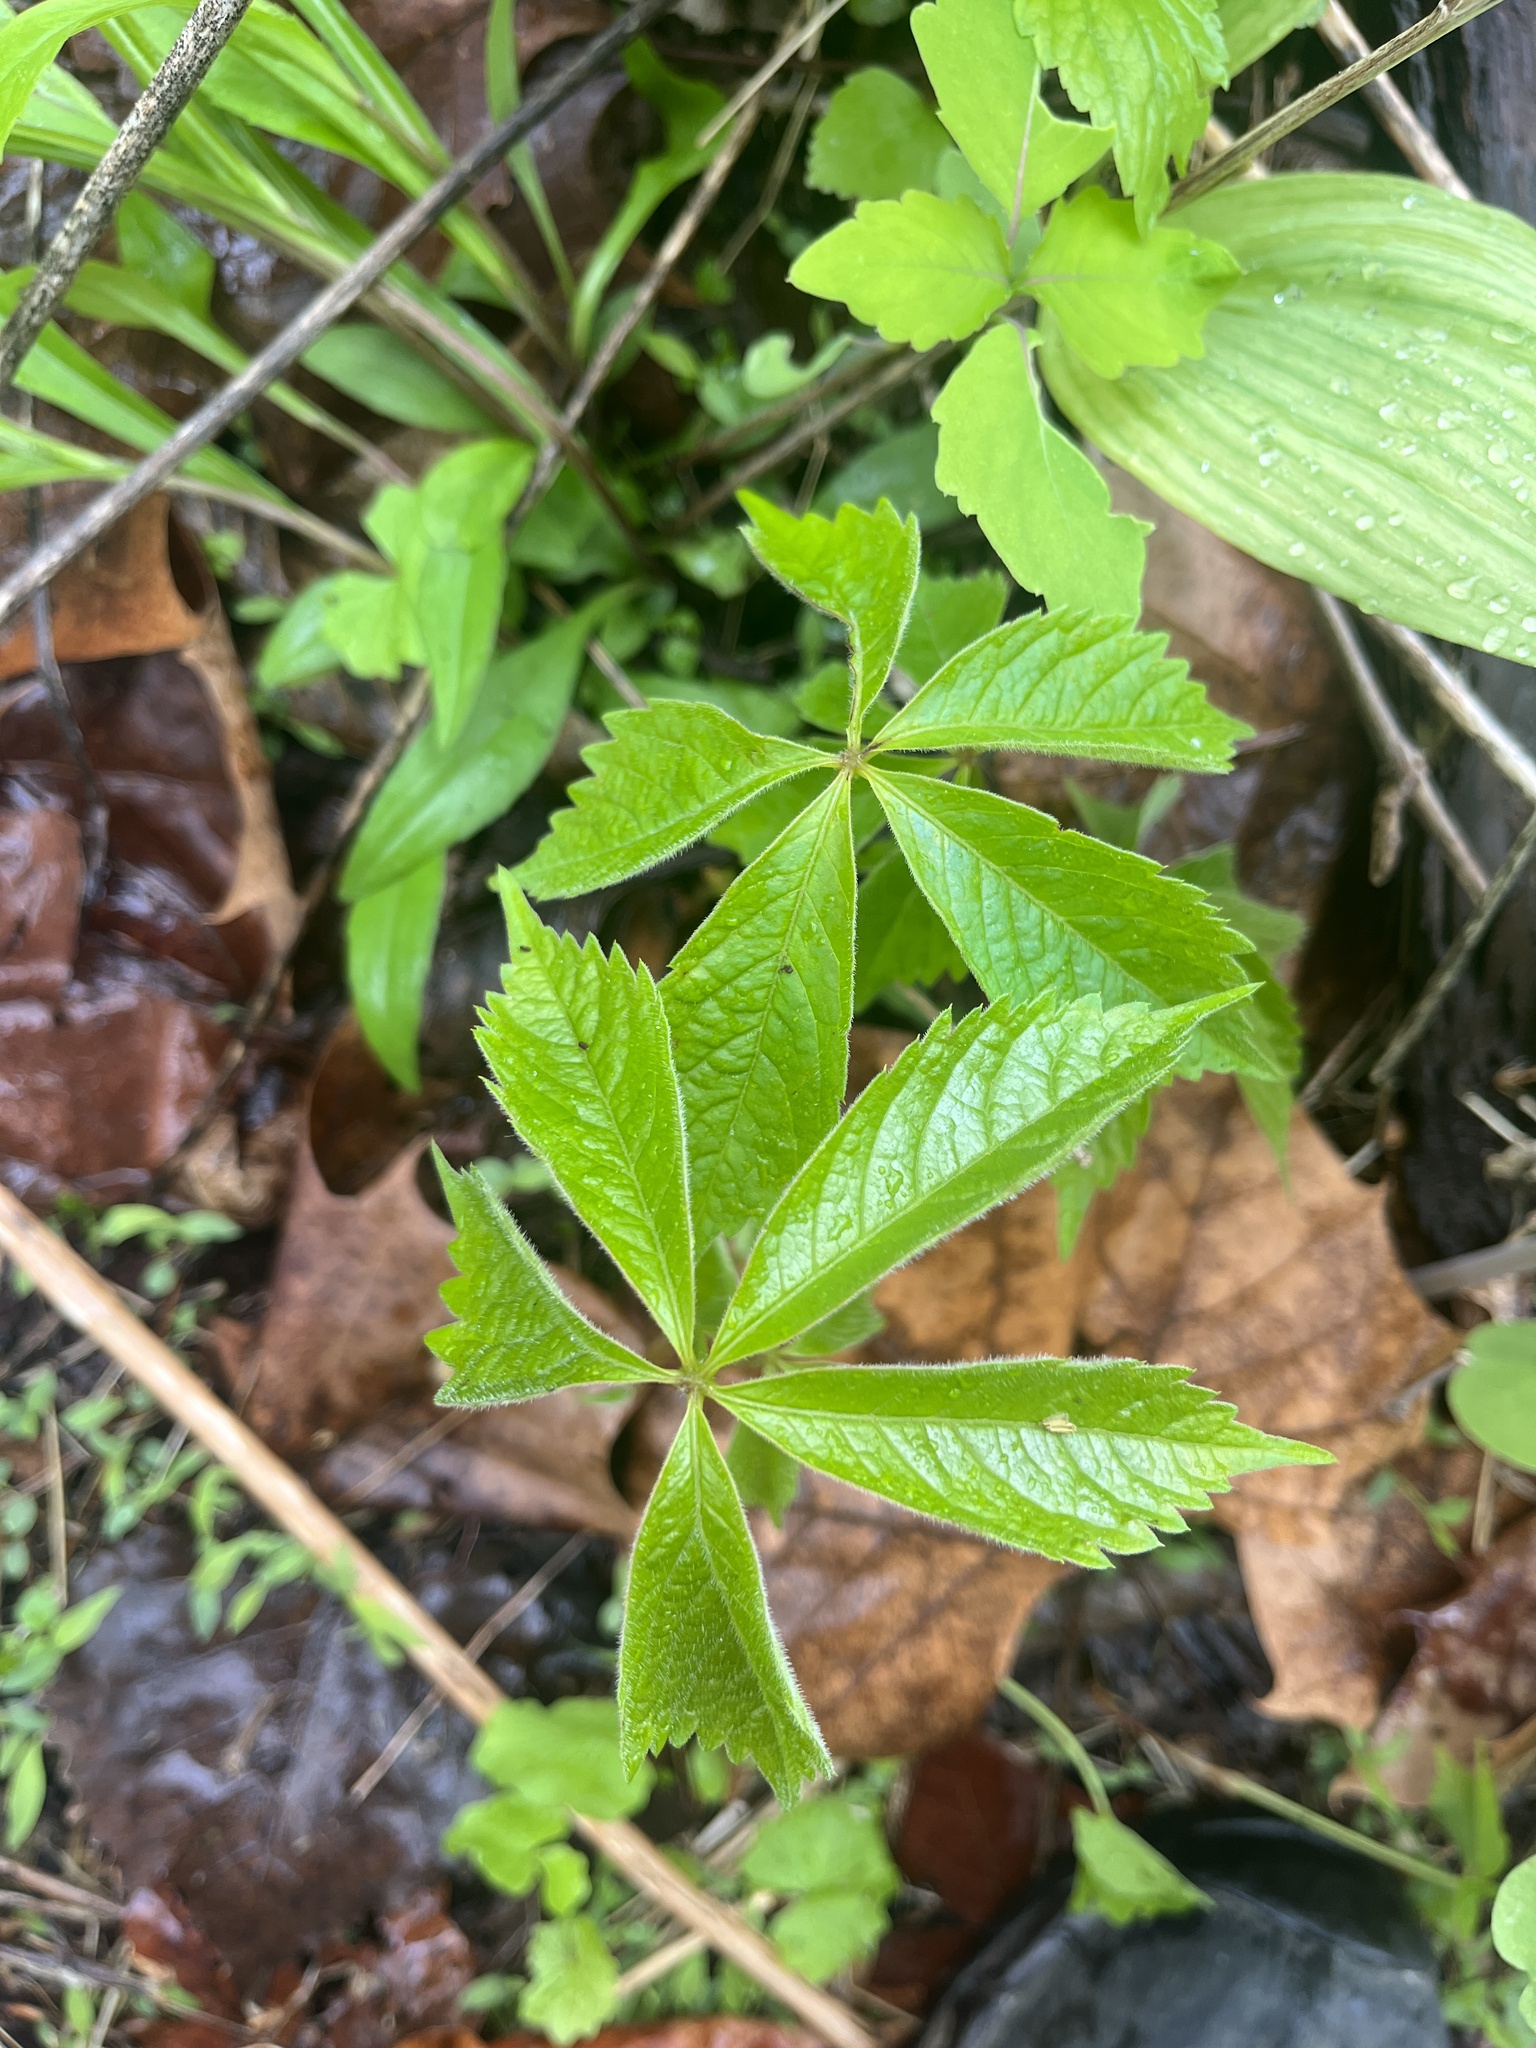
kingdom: Plantae
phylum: Tracheophyta
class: Magnoliopsida
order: Vitales
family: Vitaceae
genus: Parthenocissus
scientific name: Parthenocissus quinquefolia
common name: Virginia-creeper
